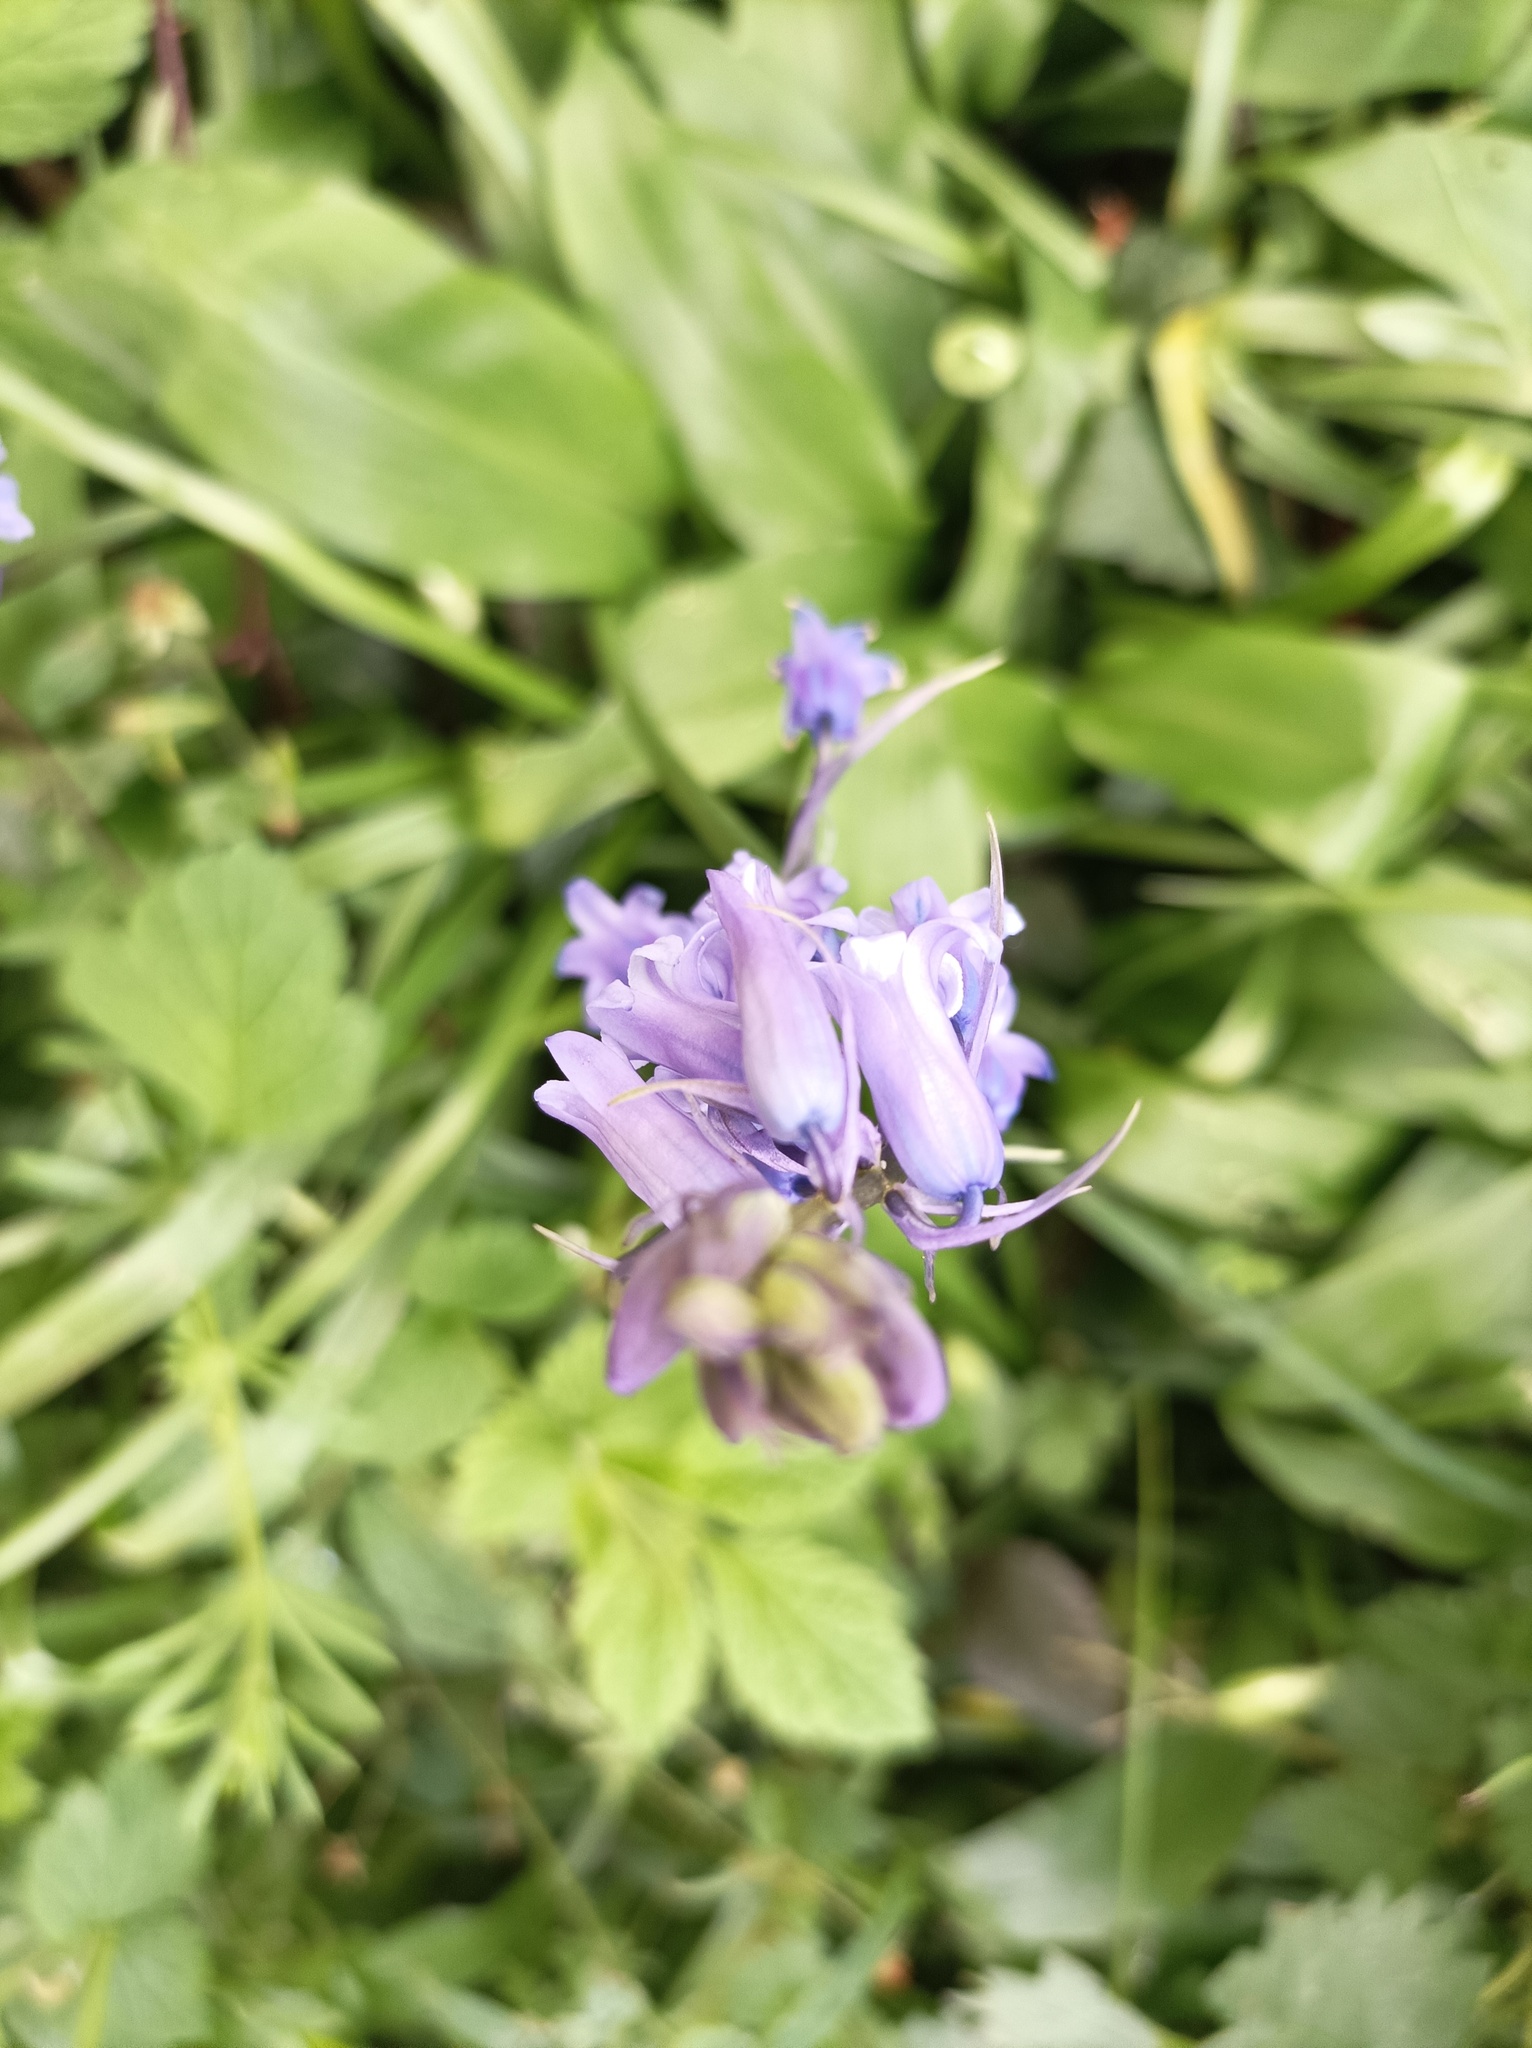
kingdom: Plantae
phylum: Tracheophyta
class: Liliopsida
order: Asparagales
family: Asparagaceae
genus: Hyacinthoides
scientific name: Hyacinthoides hispanica
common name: Spanish bluebell
